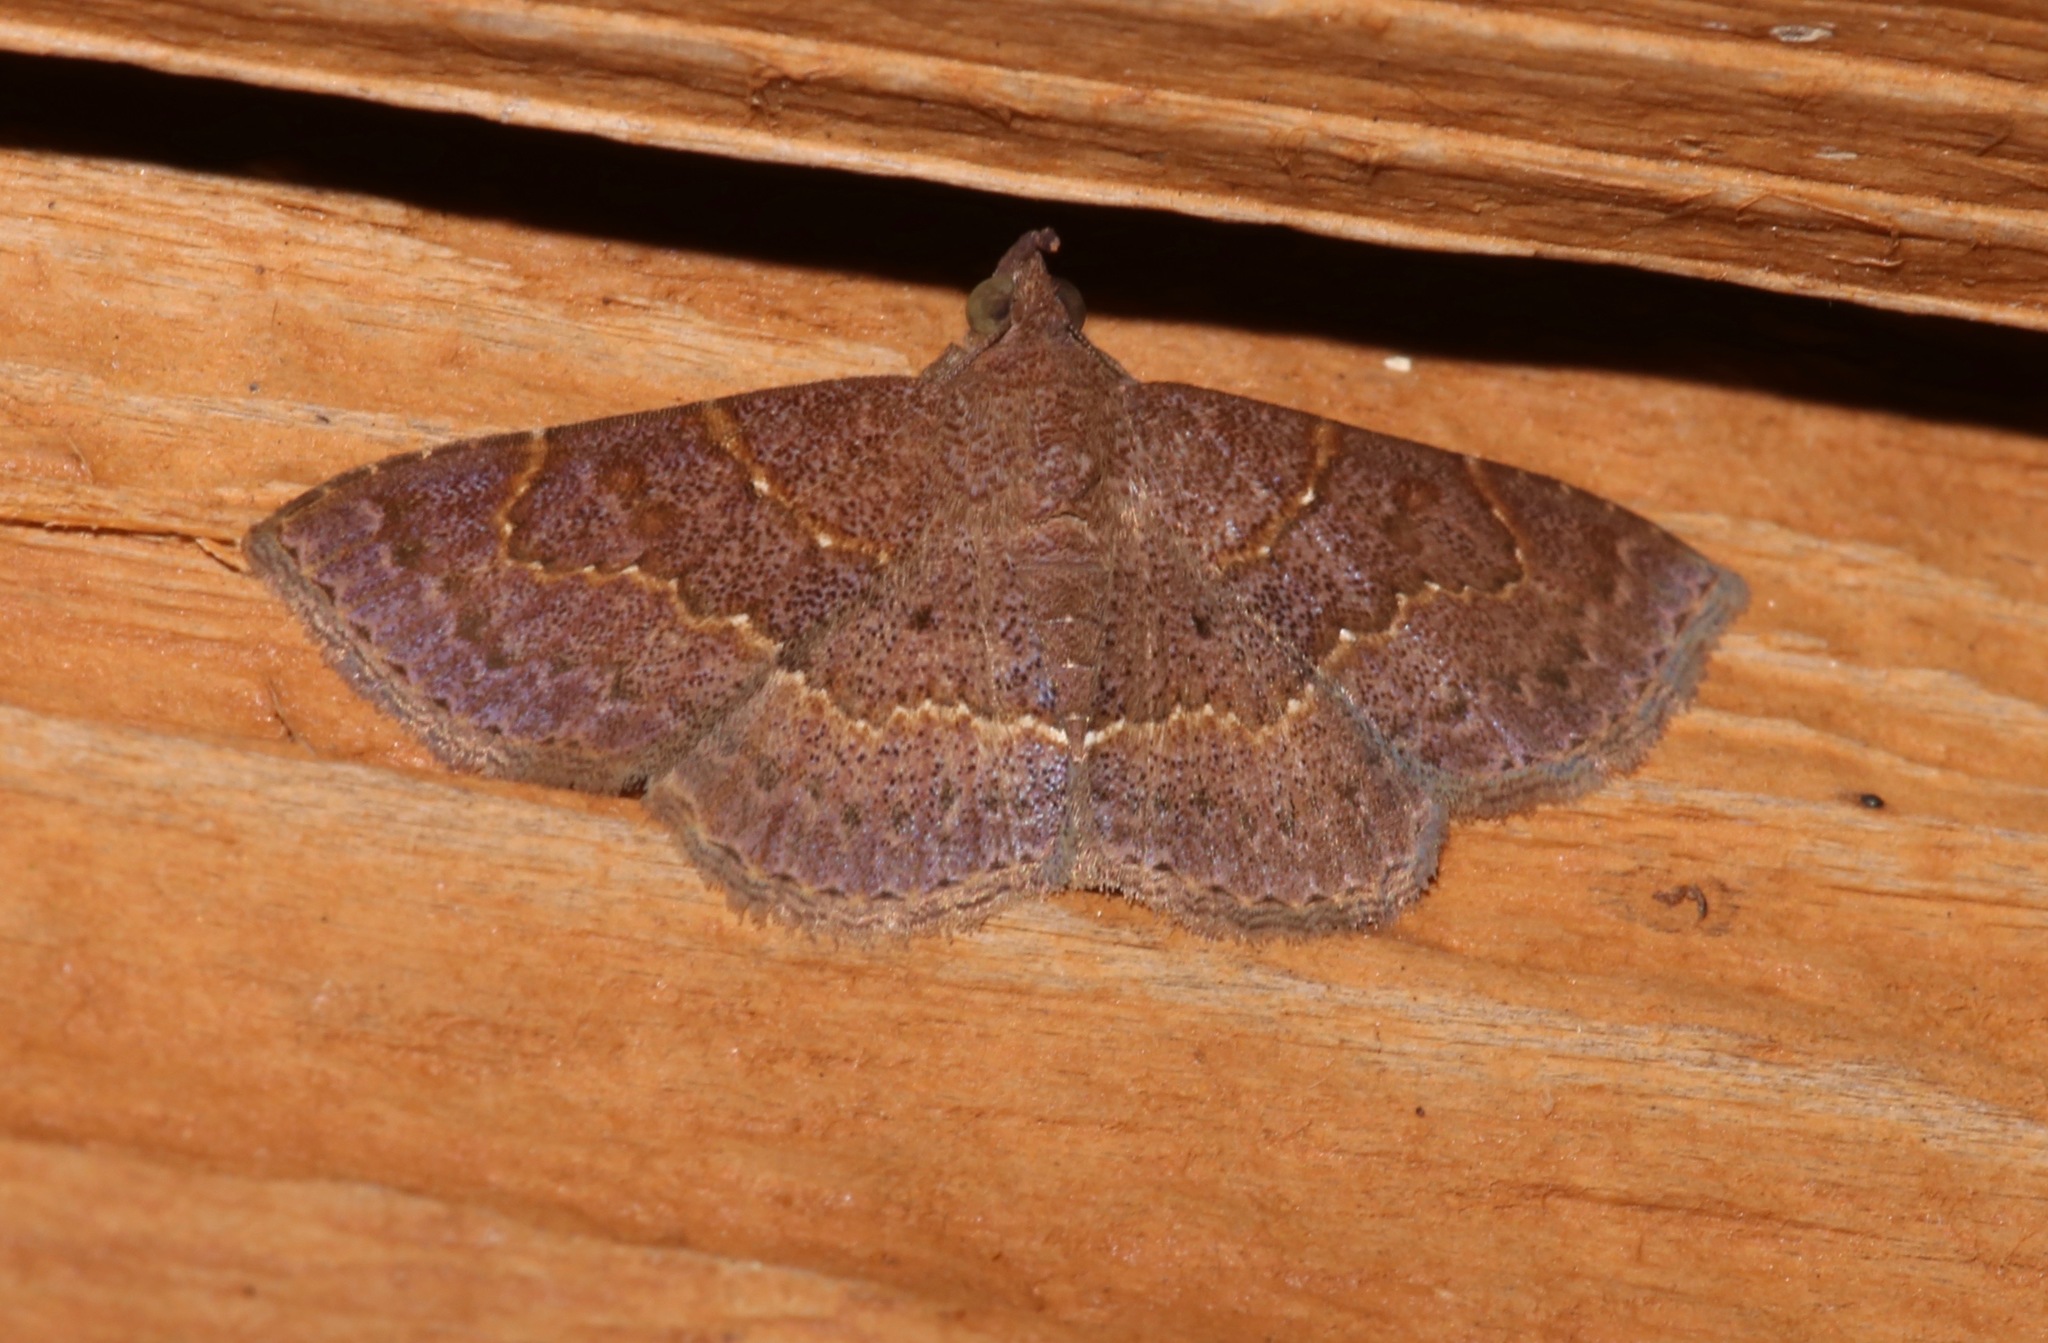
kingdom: Animalia
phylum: Arthropoda
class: Insecta
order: Lepidoptera
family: Erebidae
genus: Antiblemma
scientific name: Antiblemma perva
